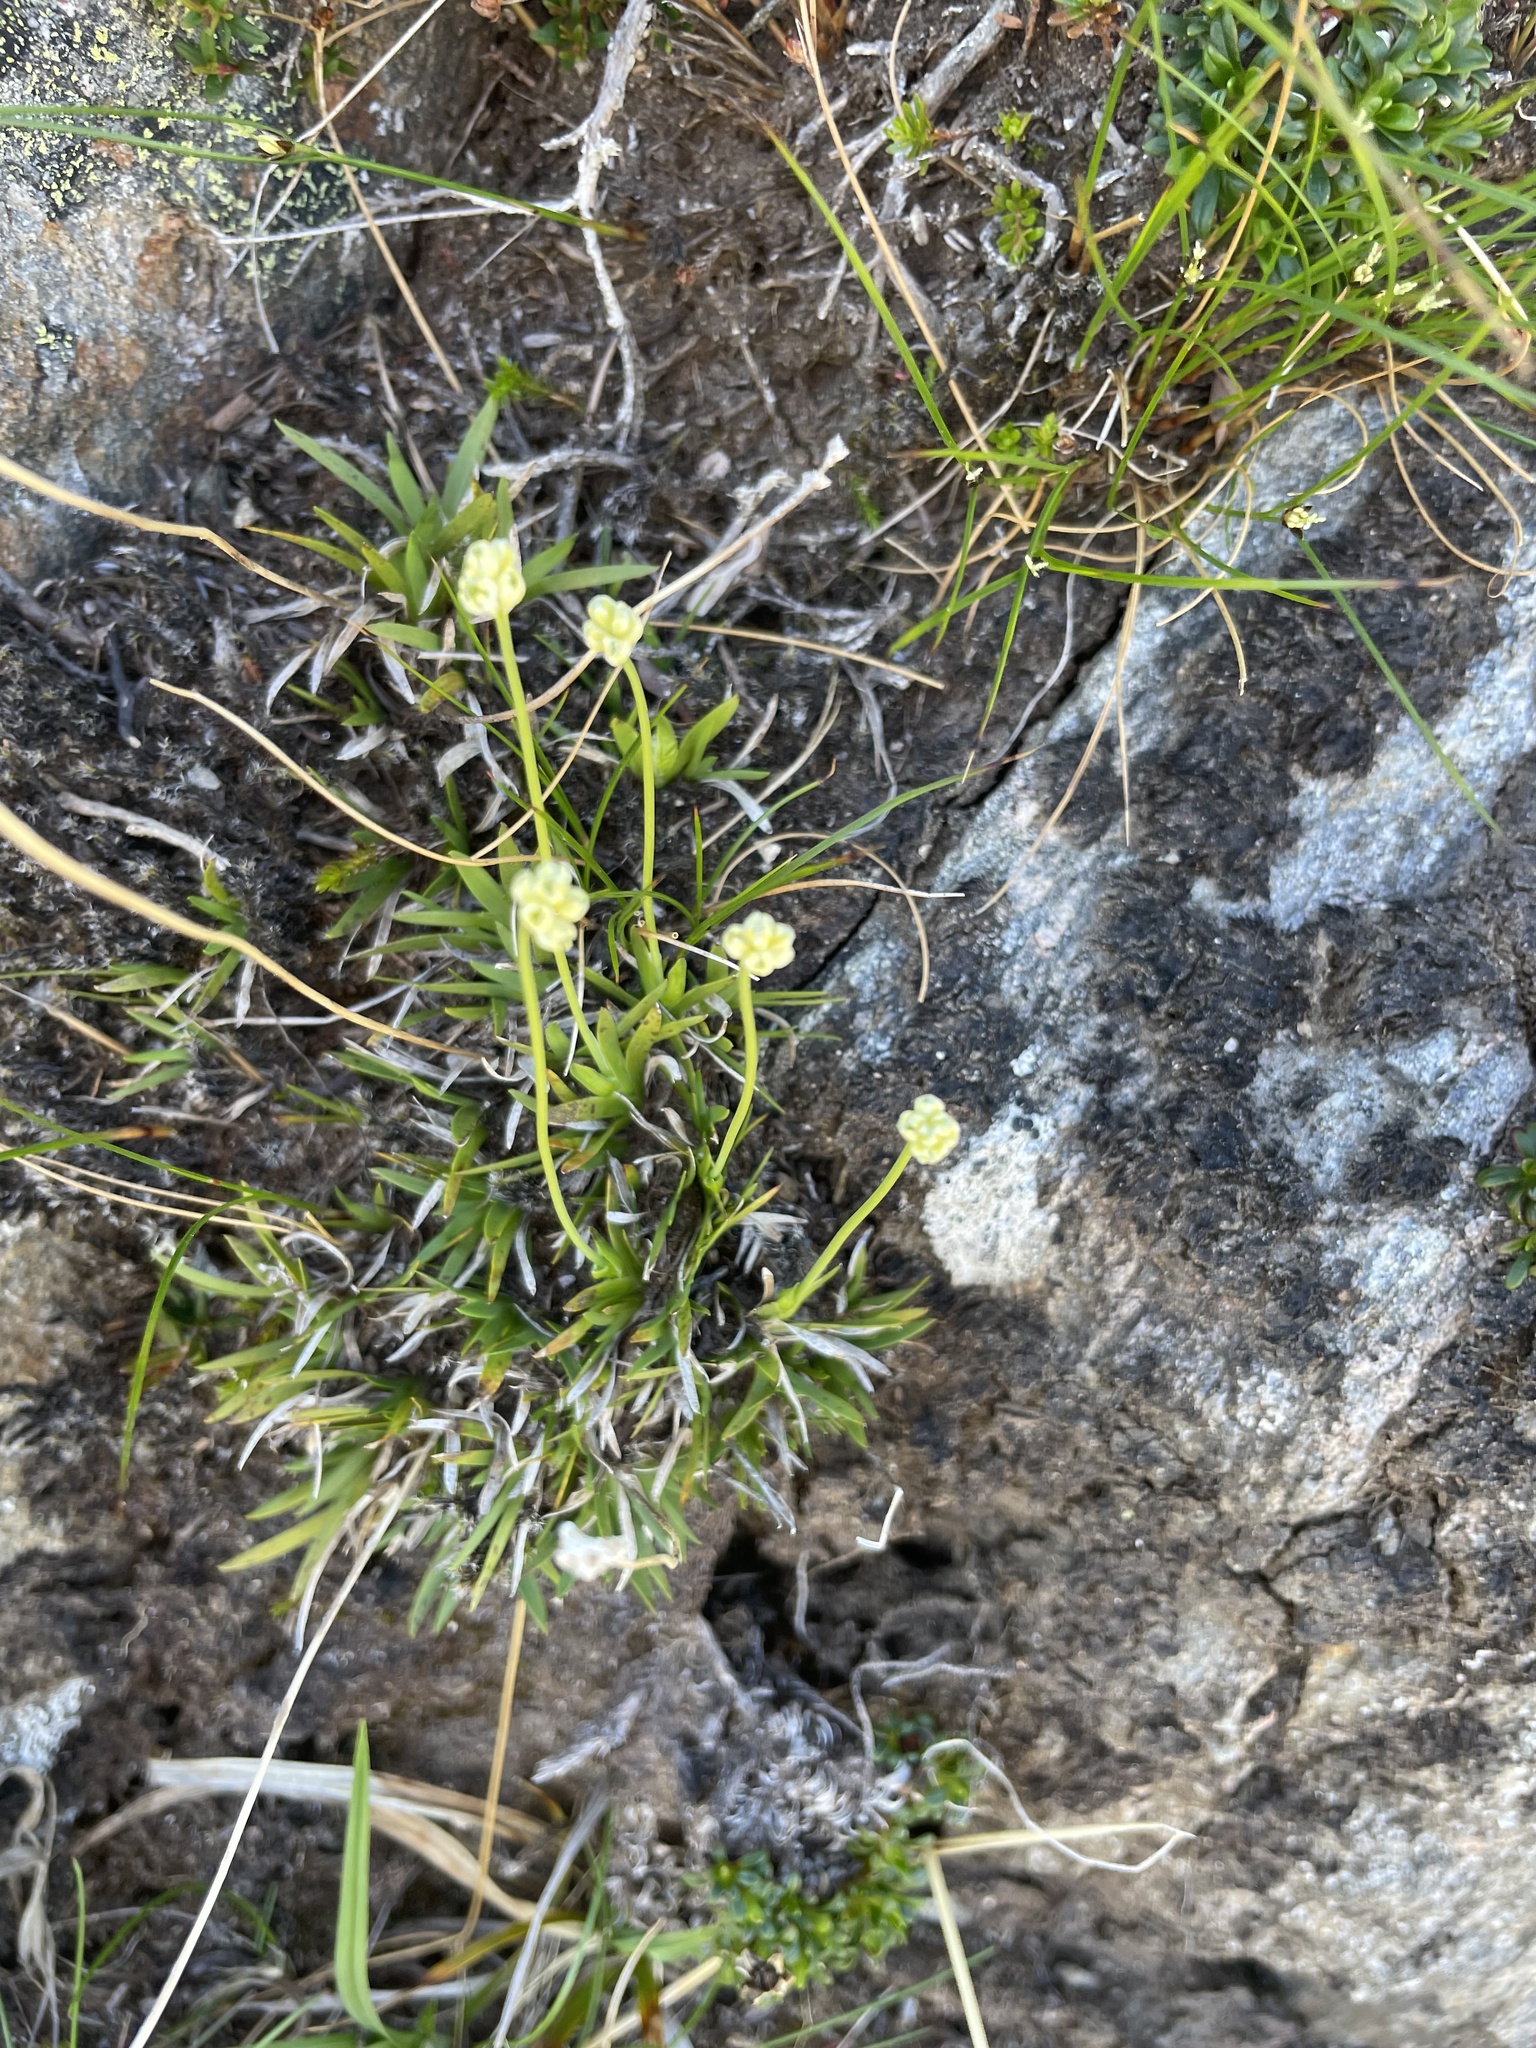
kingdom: Plantae
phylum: Tracheophyta
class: Liliopsida
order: Alismatales
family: Tofieldiaceae
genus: Tofieldia
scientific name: Tofieldia pusilla
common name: Scottish false asphodel
